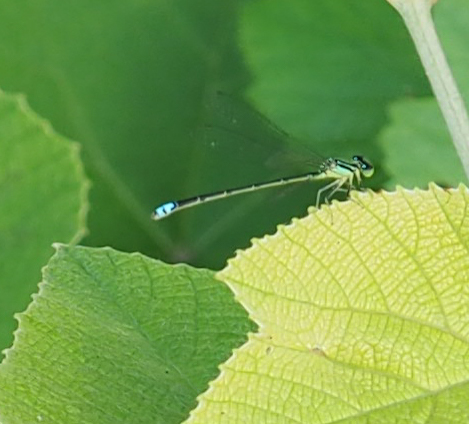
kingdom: Animalia
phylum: Arthropoda
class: Insecta
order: Odonata
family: Coenagrionidae
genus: Ischnura
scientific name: Ischnura verticalis
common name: Eastern forktail
